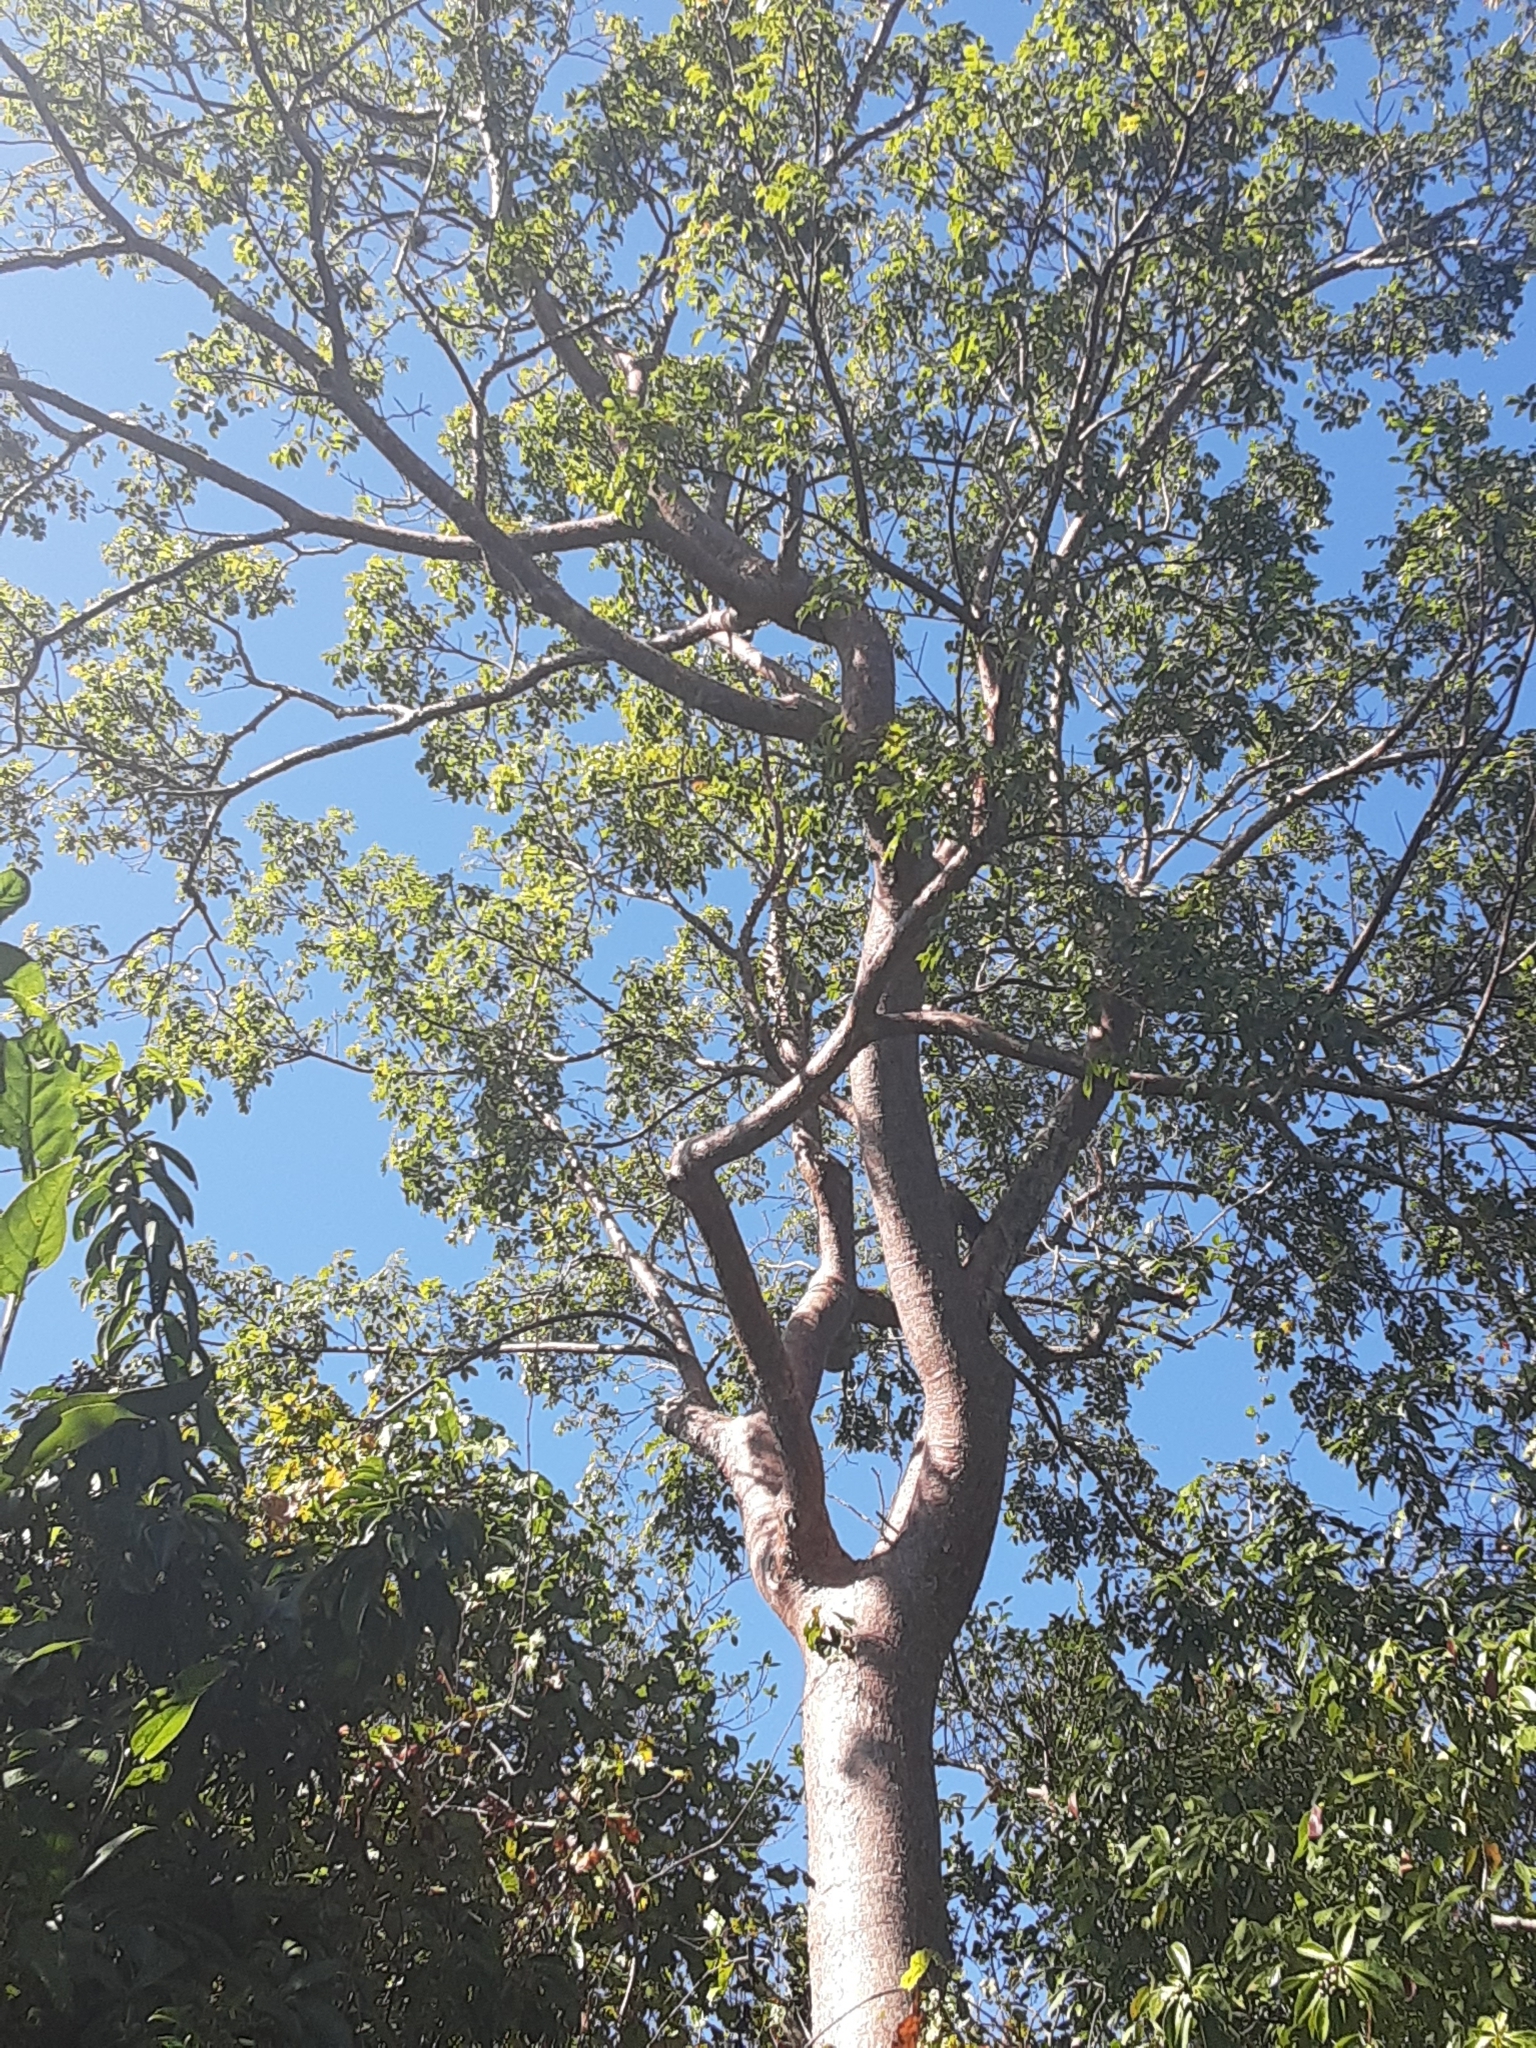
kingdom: Plantae
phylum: Tracheophyta
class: Magnoliopsida
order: Sapindales
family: Burseraceae
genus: Bursera
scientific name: Bursera simaruba
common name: Turpentine tree
